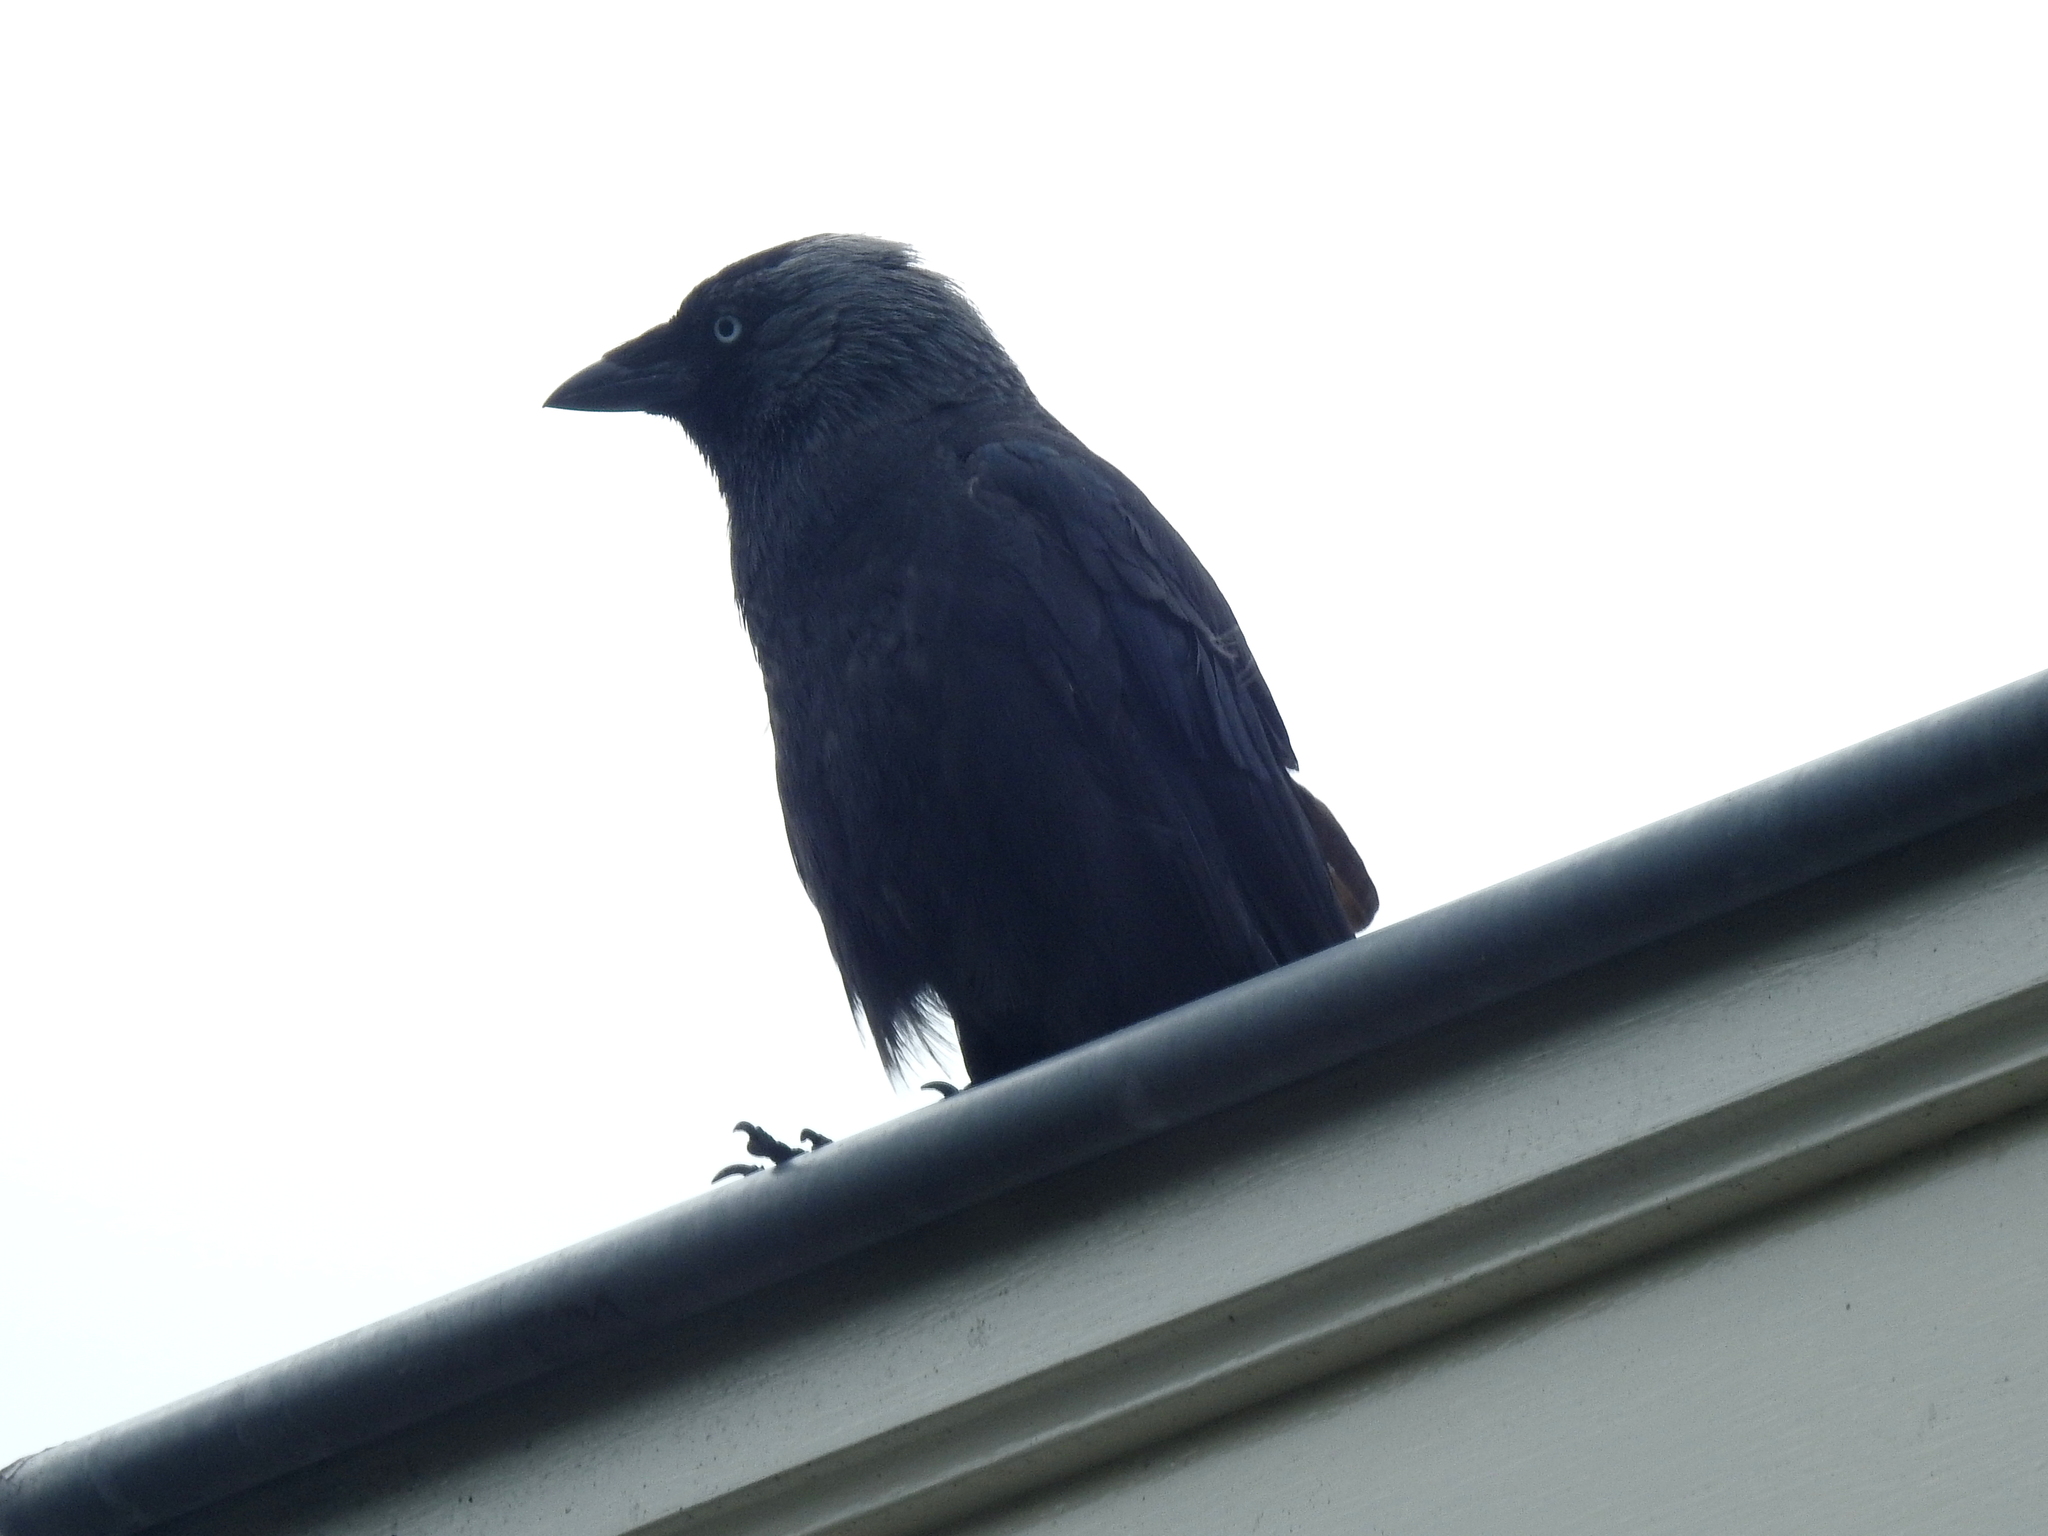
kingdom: Animalia
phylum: Chordata
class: Aves
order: Passeriformes
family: Corvidae
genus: Coloeus
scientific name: Coloeus monedula
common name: Western jackdaw
